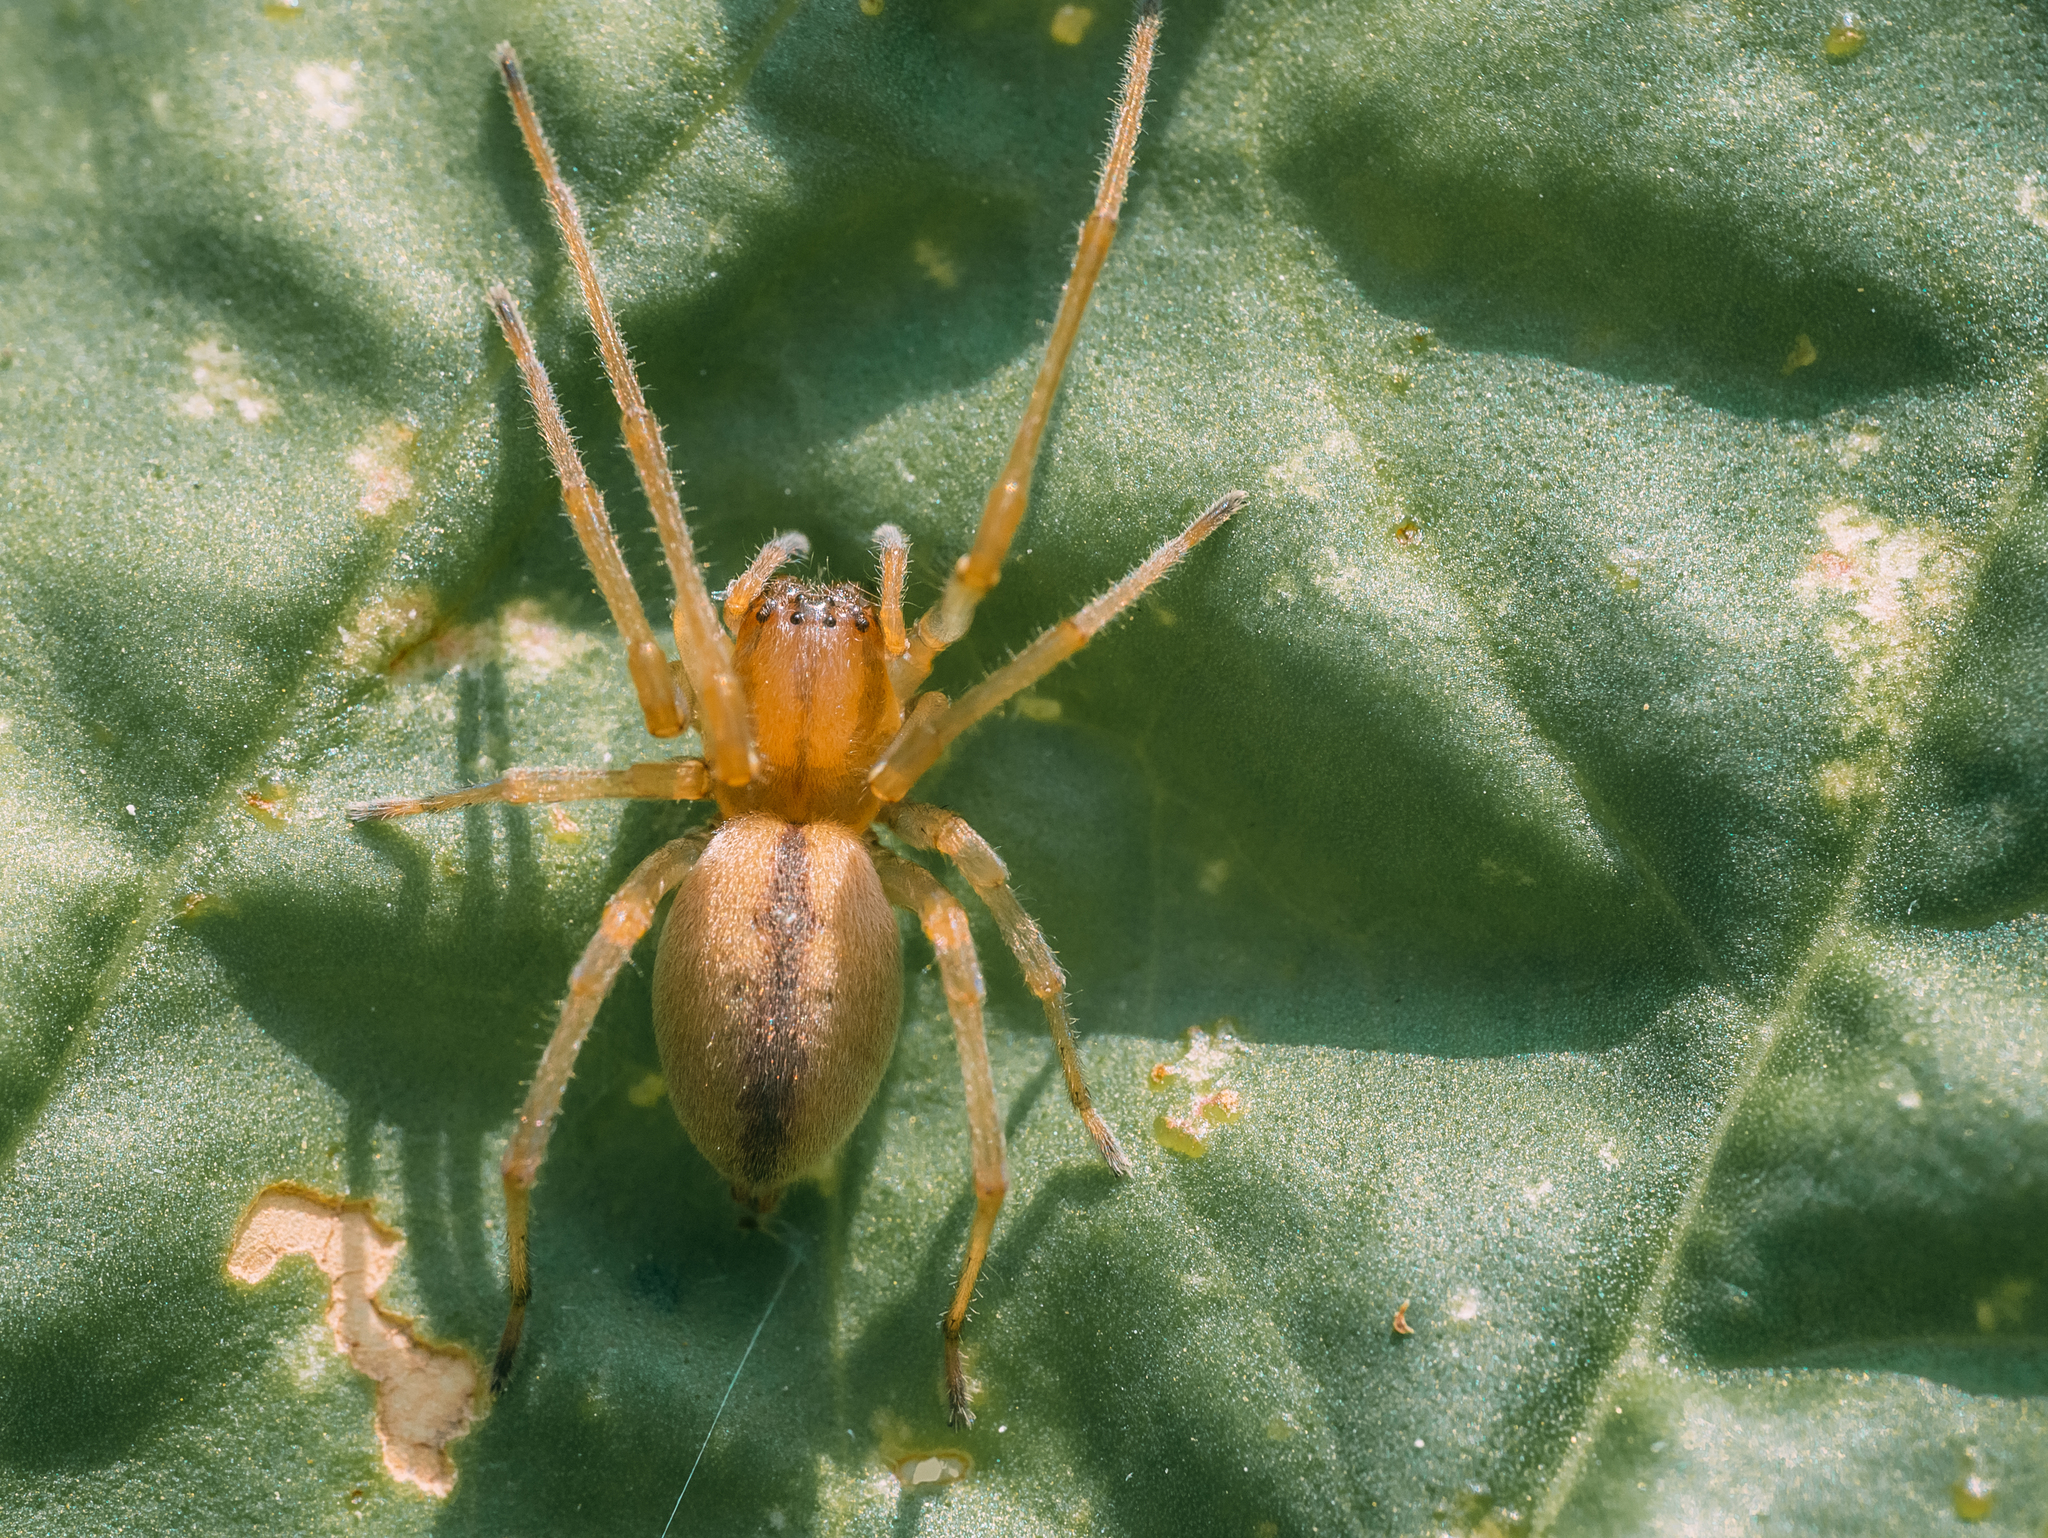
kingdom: Animalia
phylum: Arthropoda
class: Arachnida
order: Araneae
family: Cheiracanthiidae
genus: Cheiracanthium
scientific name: Cheiracanthium erraticum
